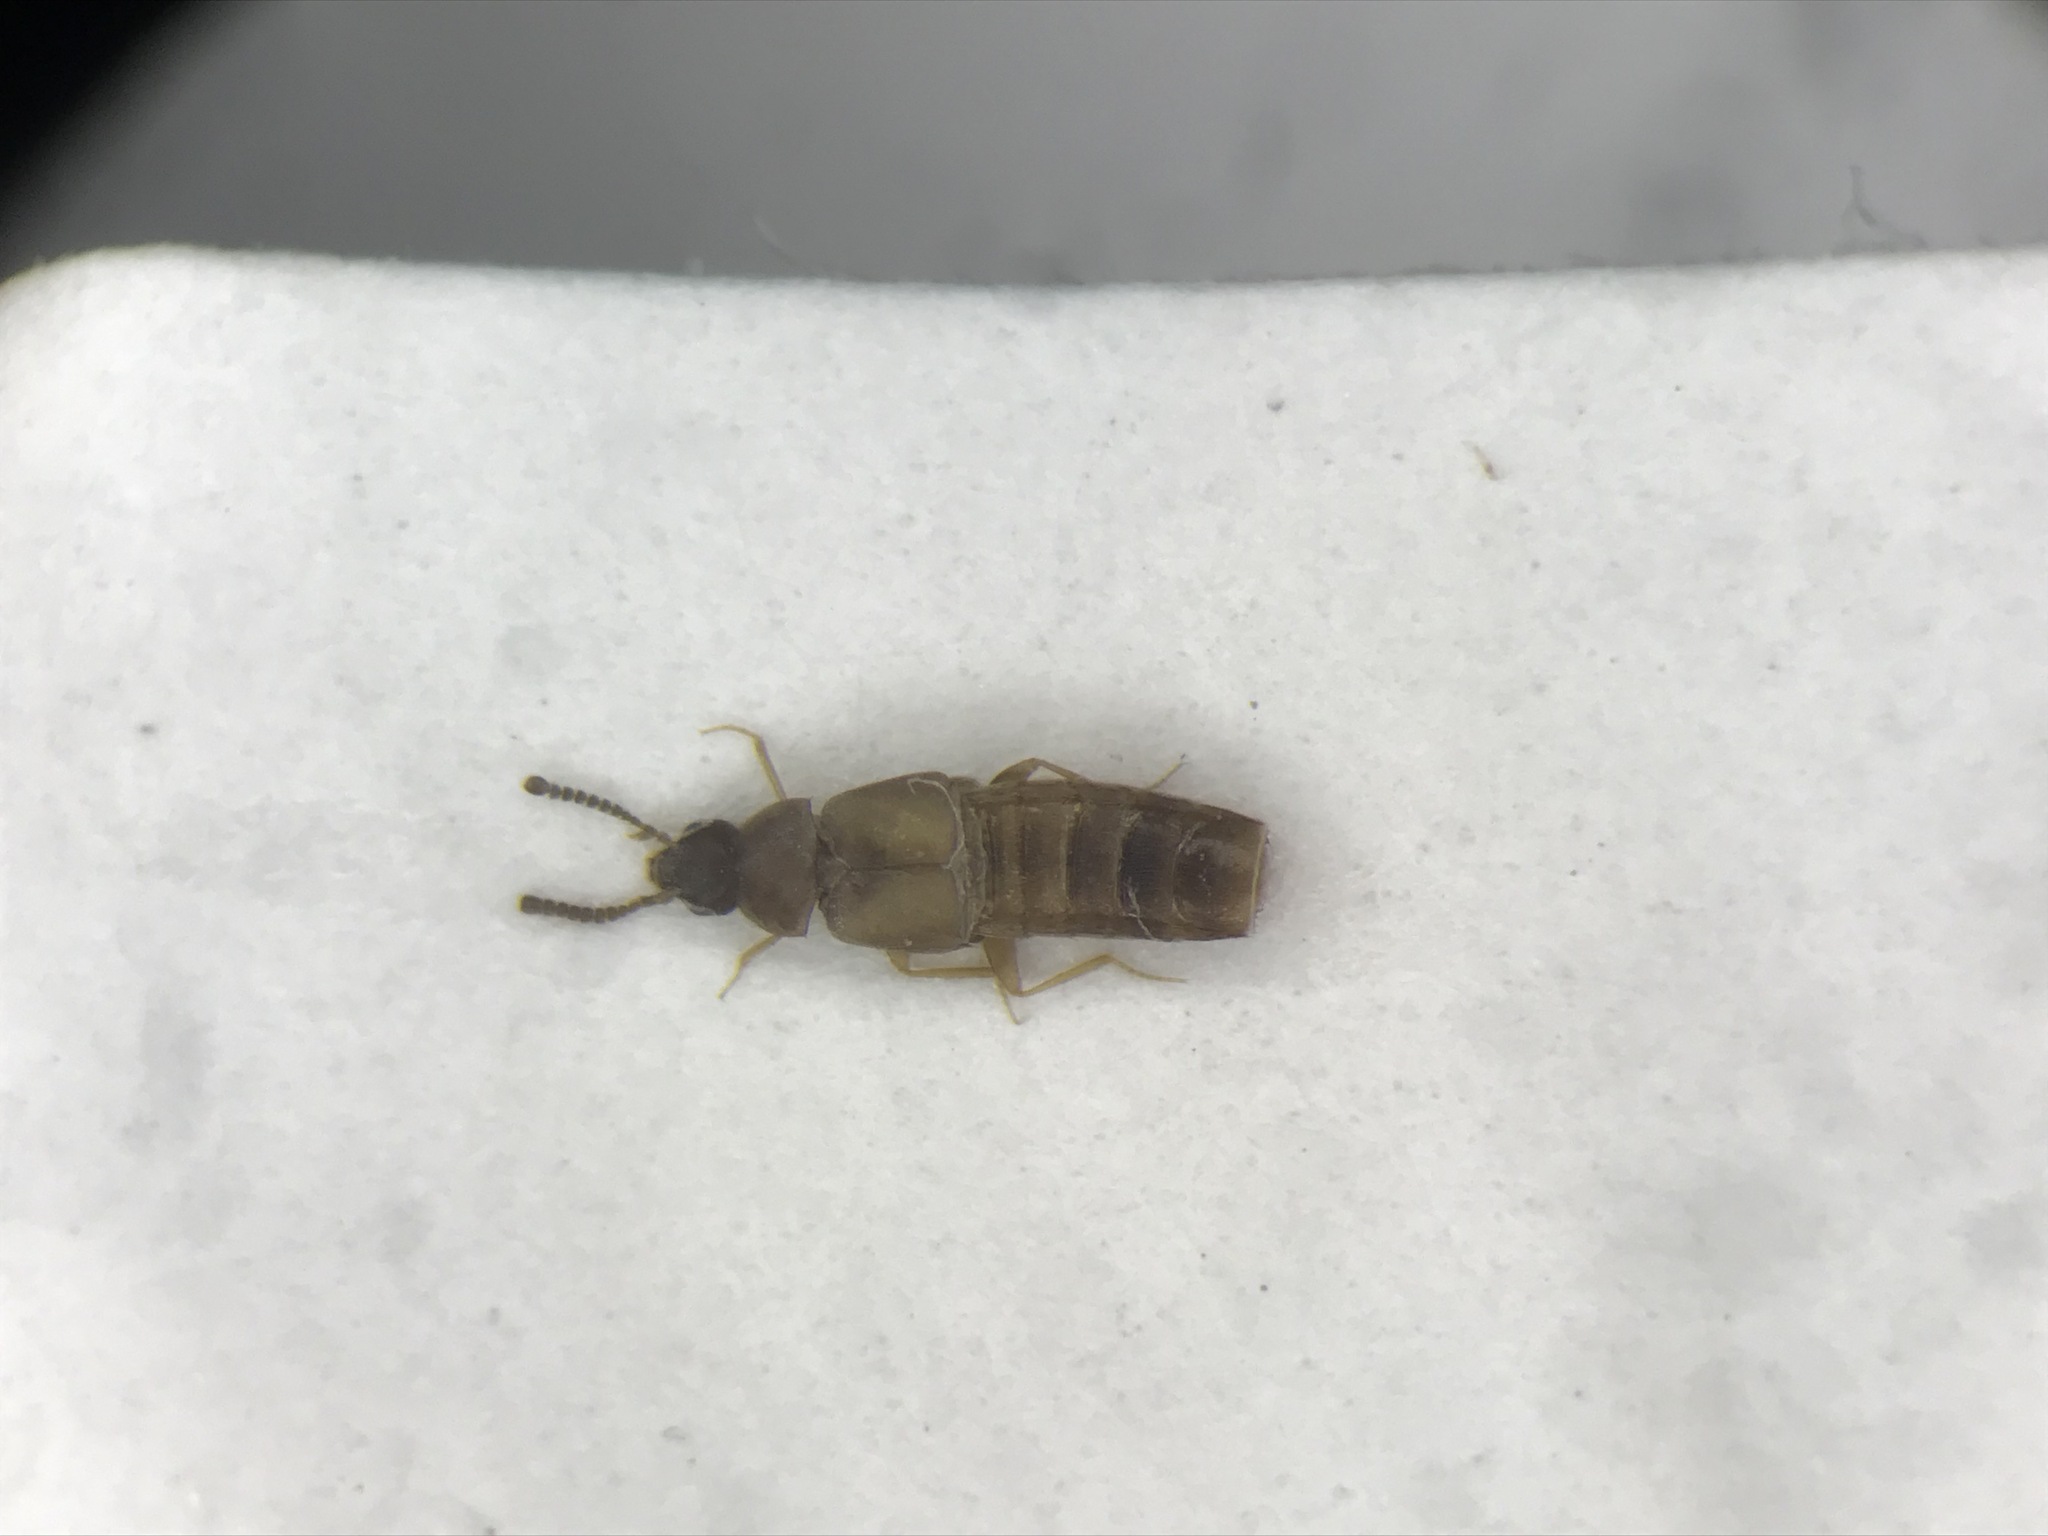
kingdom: Animalia
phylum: Arthropoda
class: Insecta
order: Coleoptera
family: Staphylinidae
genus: Placusa
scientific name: Placusa tachyporoides
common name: Rove beetle
